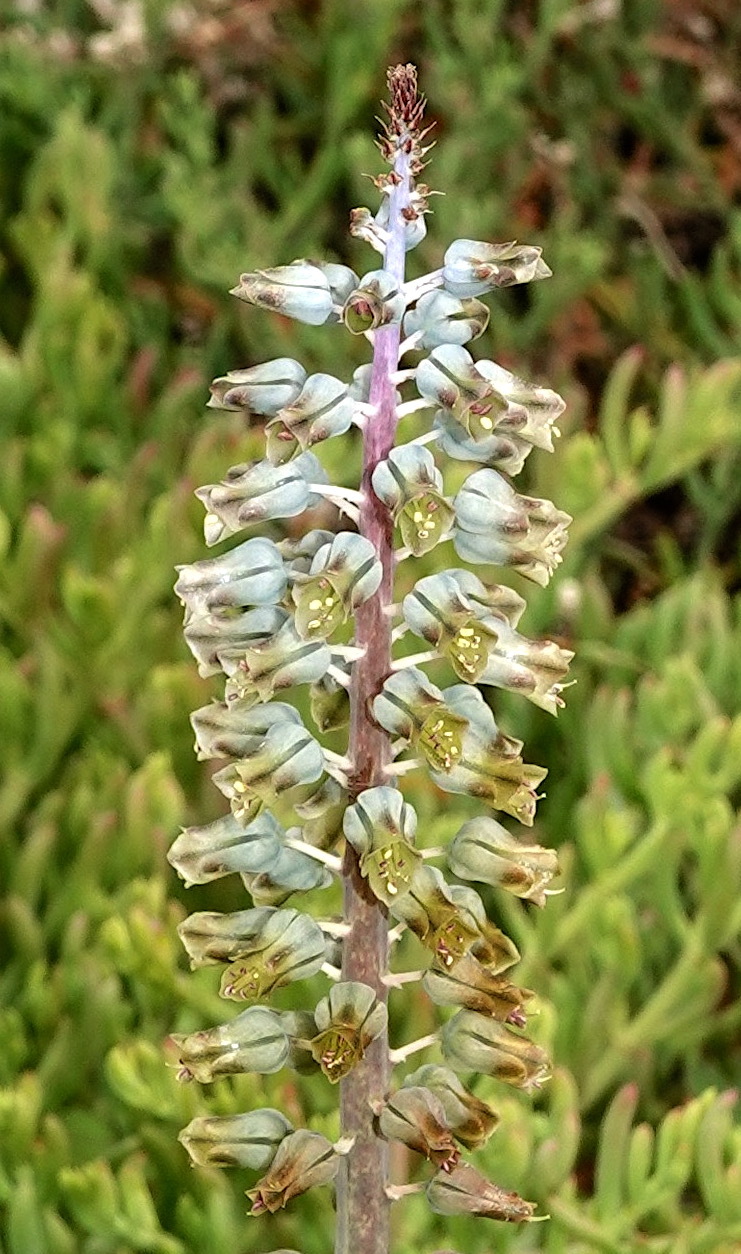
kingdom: Plantae
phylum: Tracheophyta
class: Liliopsida
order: Asparagales
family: Asparagaceae
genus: Lachenalia
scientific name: Lachenalia bolusii
